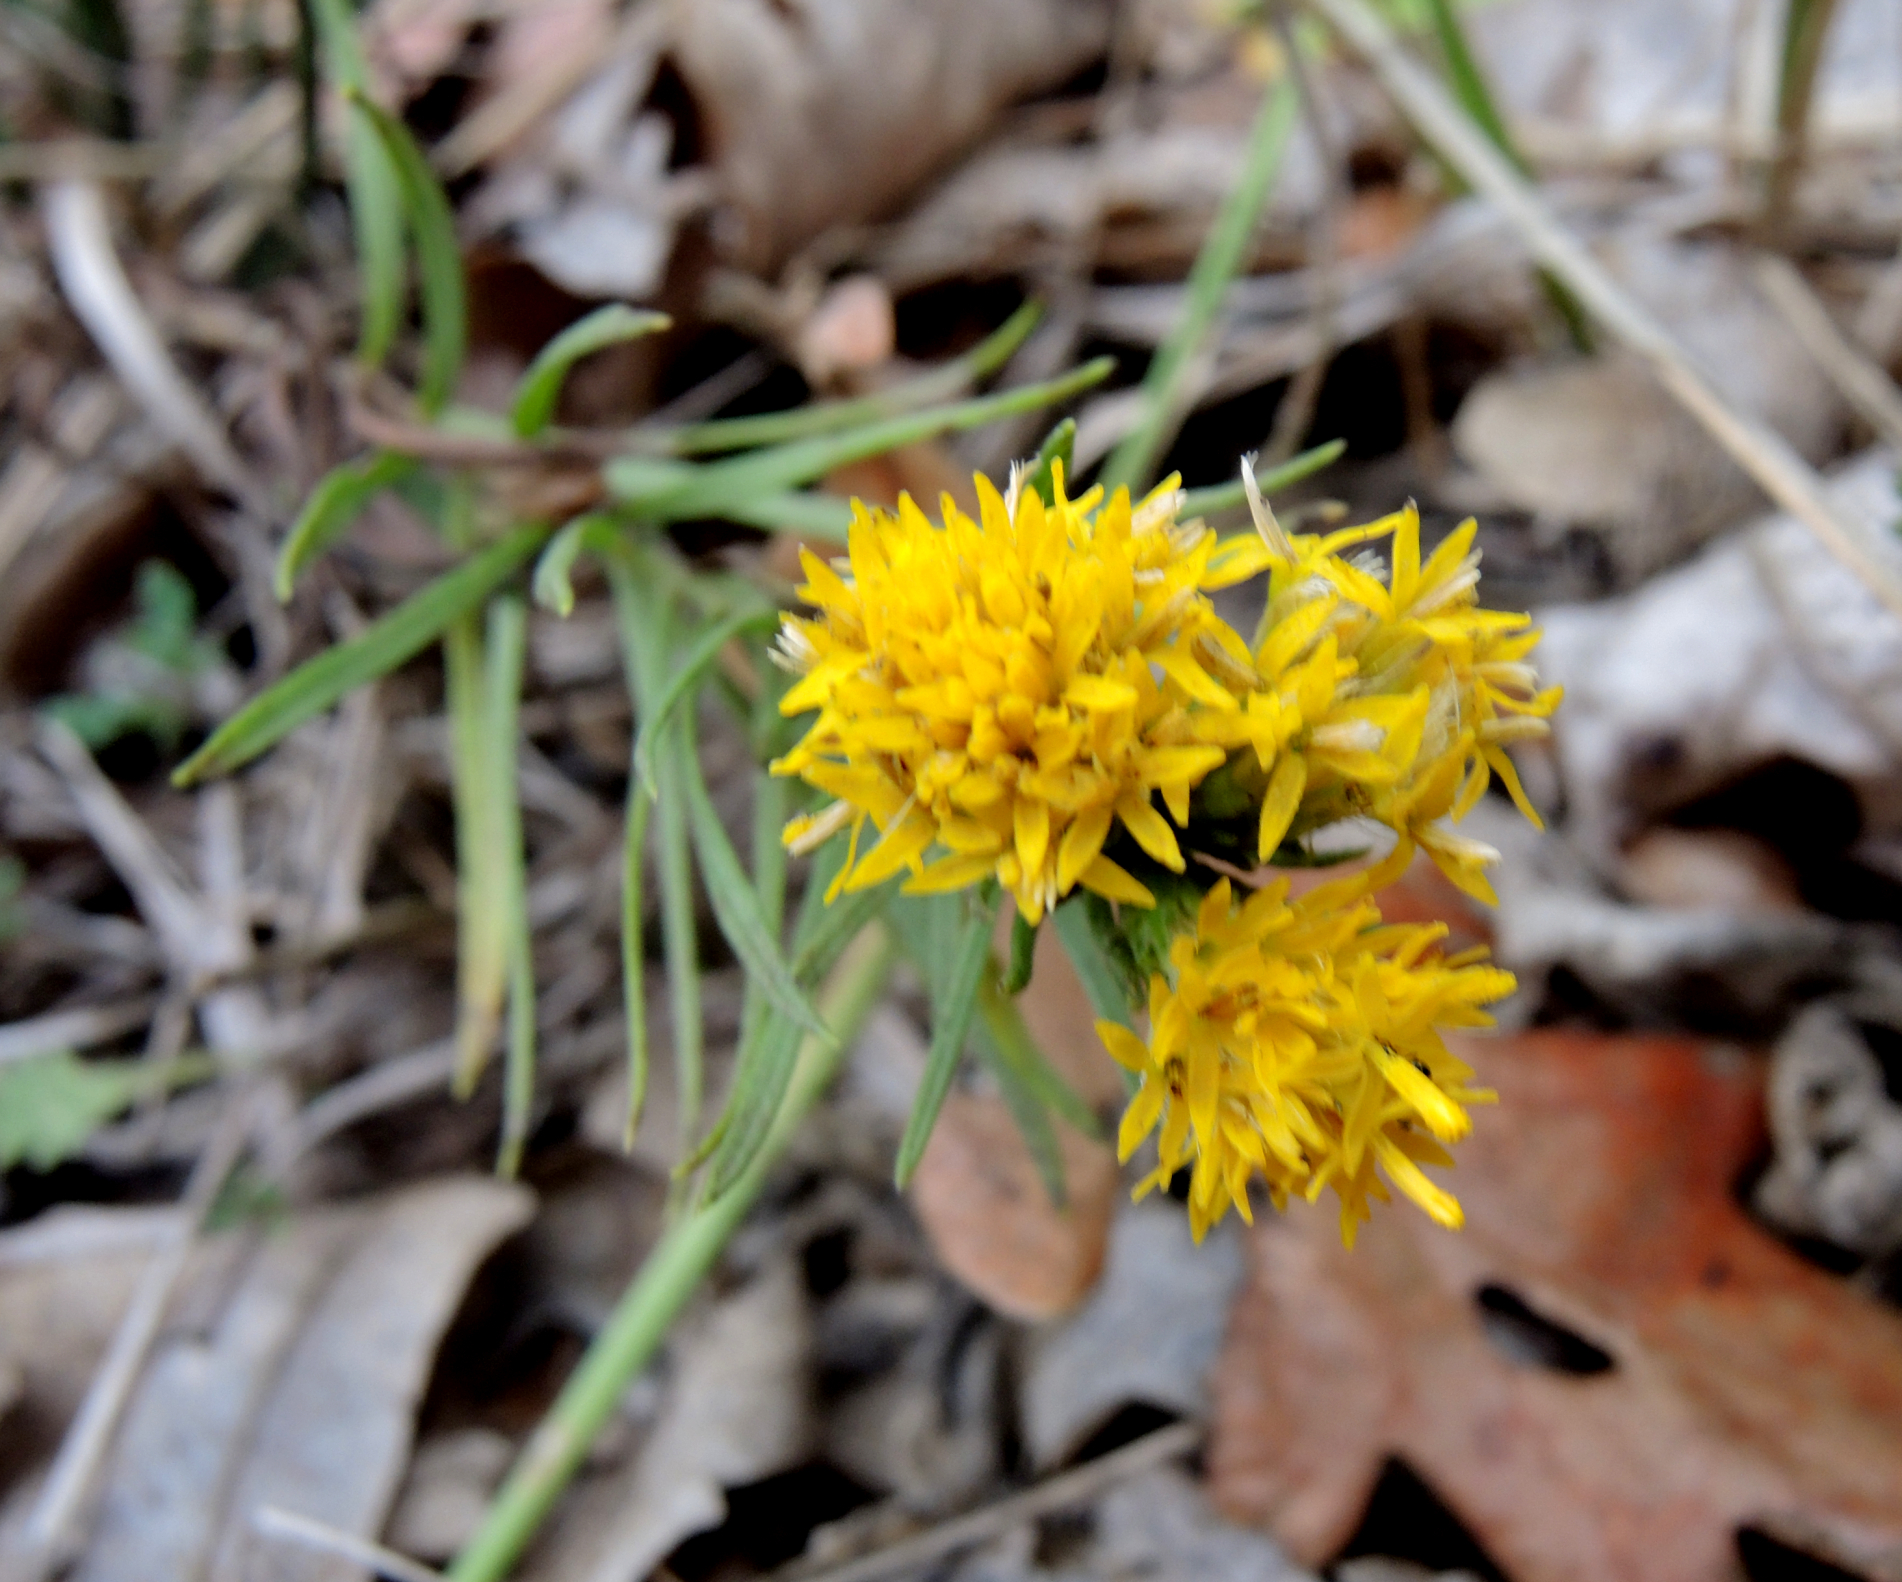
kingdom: Plantae
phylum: Tracheophyta
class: Magnoliopsida
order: Asterales
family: Asteraceae
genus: Galatella
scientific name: Galatella linosyris
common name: Goldilocks aster
